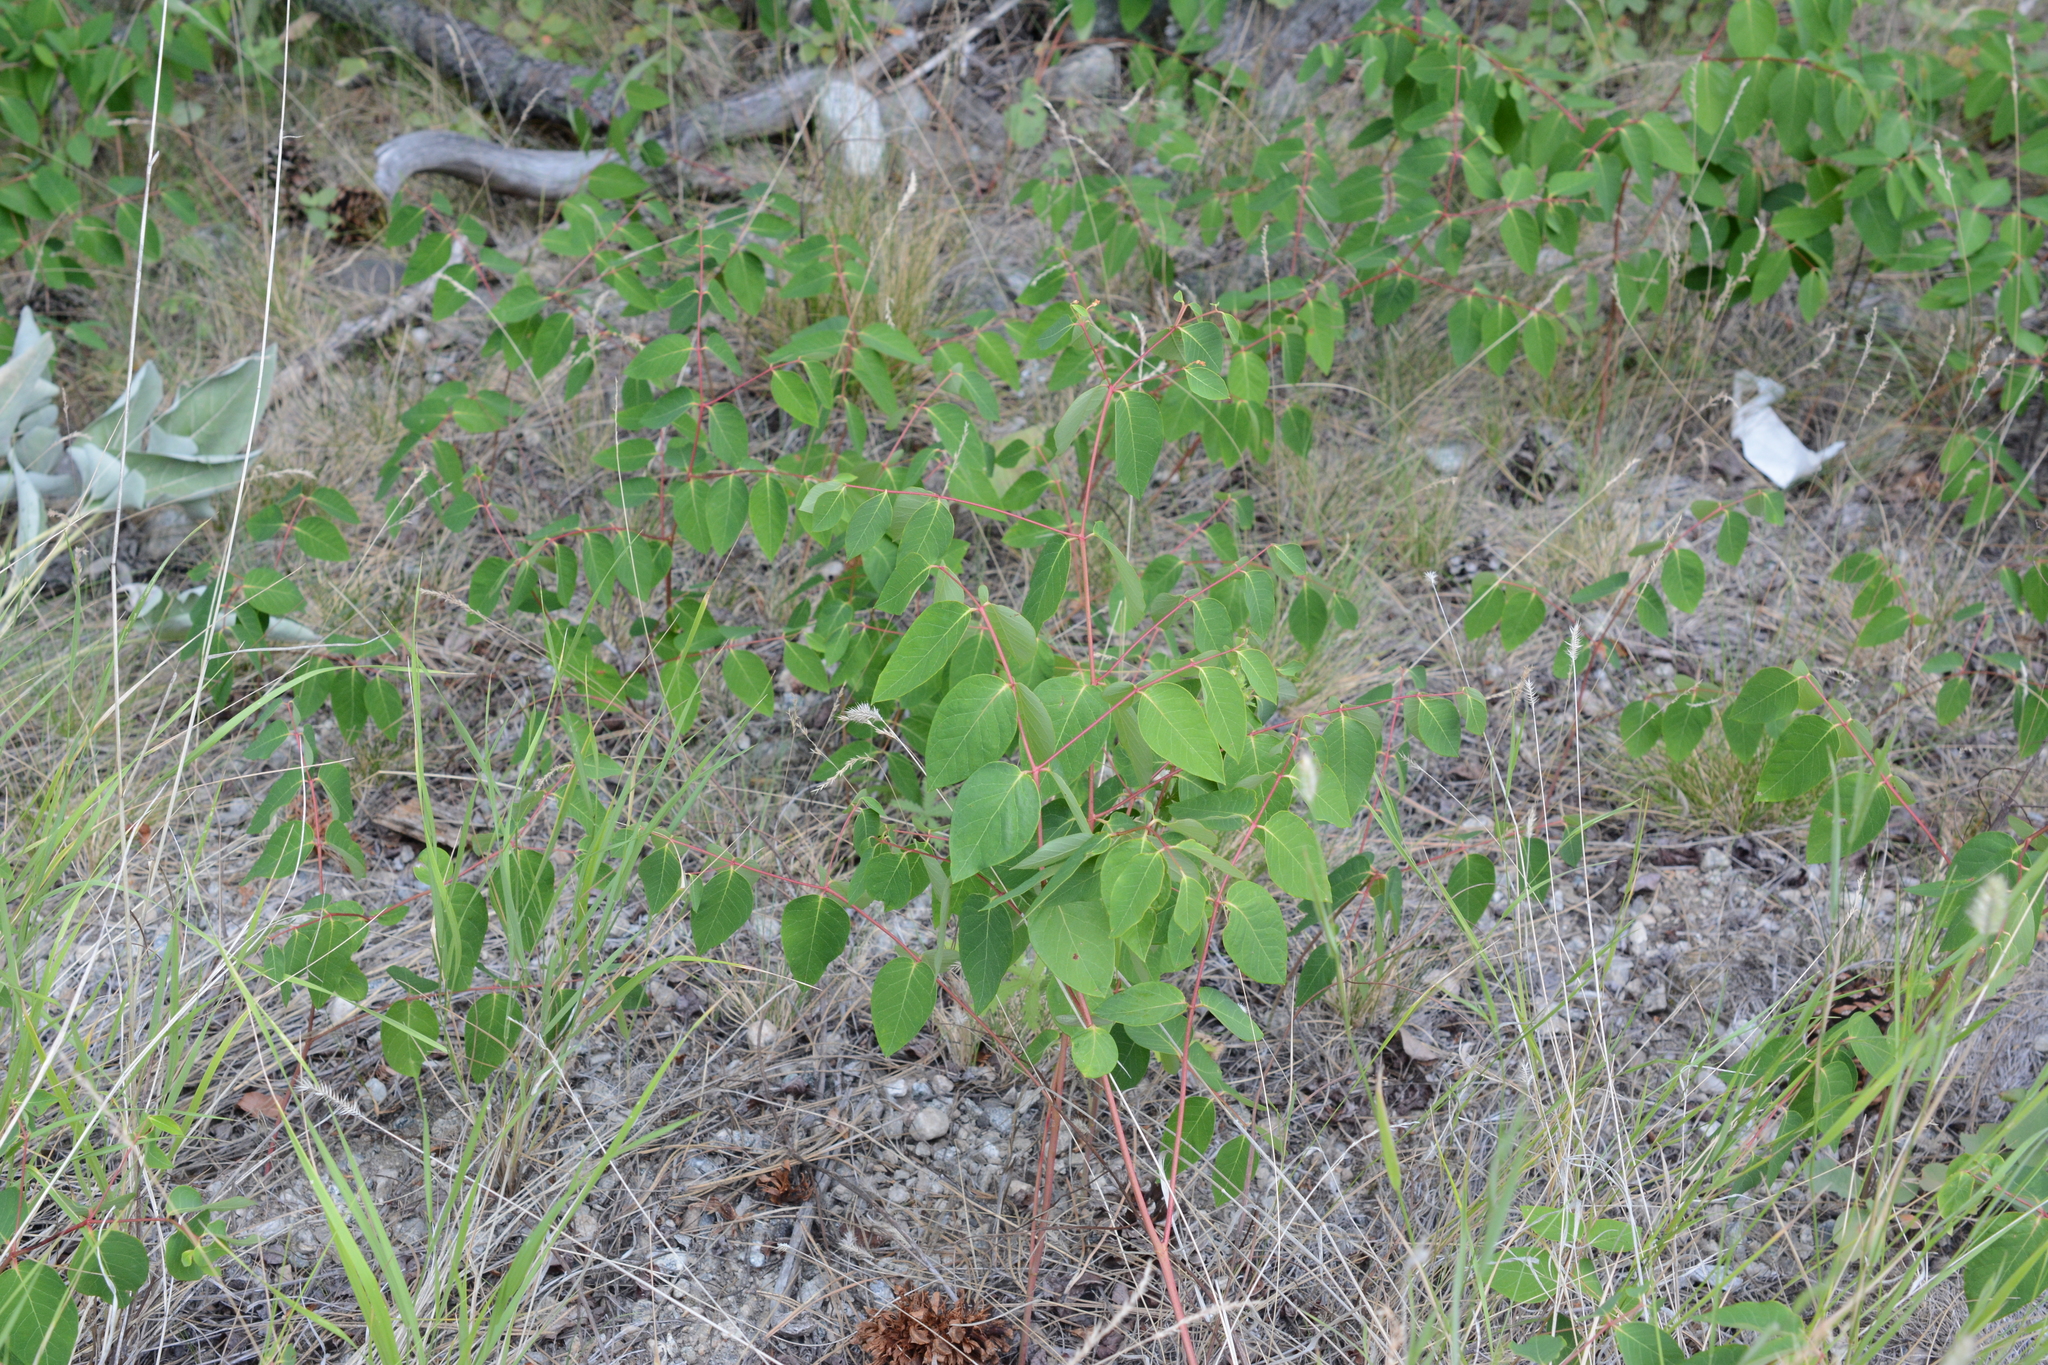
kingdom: Plantae
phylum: Tracheophyta
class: Magnoliopsida
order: Gentianales
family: Apocynaceae
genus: Apocynum
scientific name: Apocynum androsaemifolium
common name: Spreading dogbane
